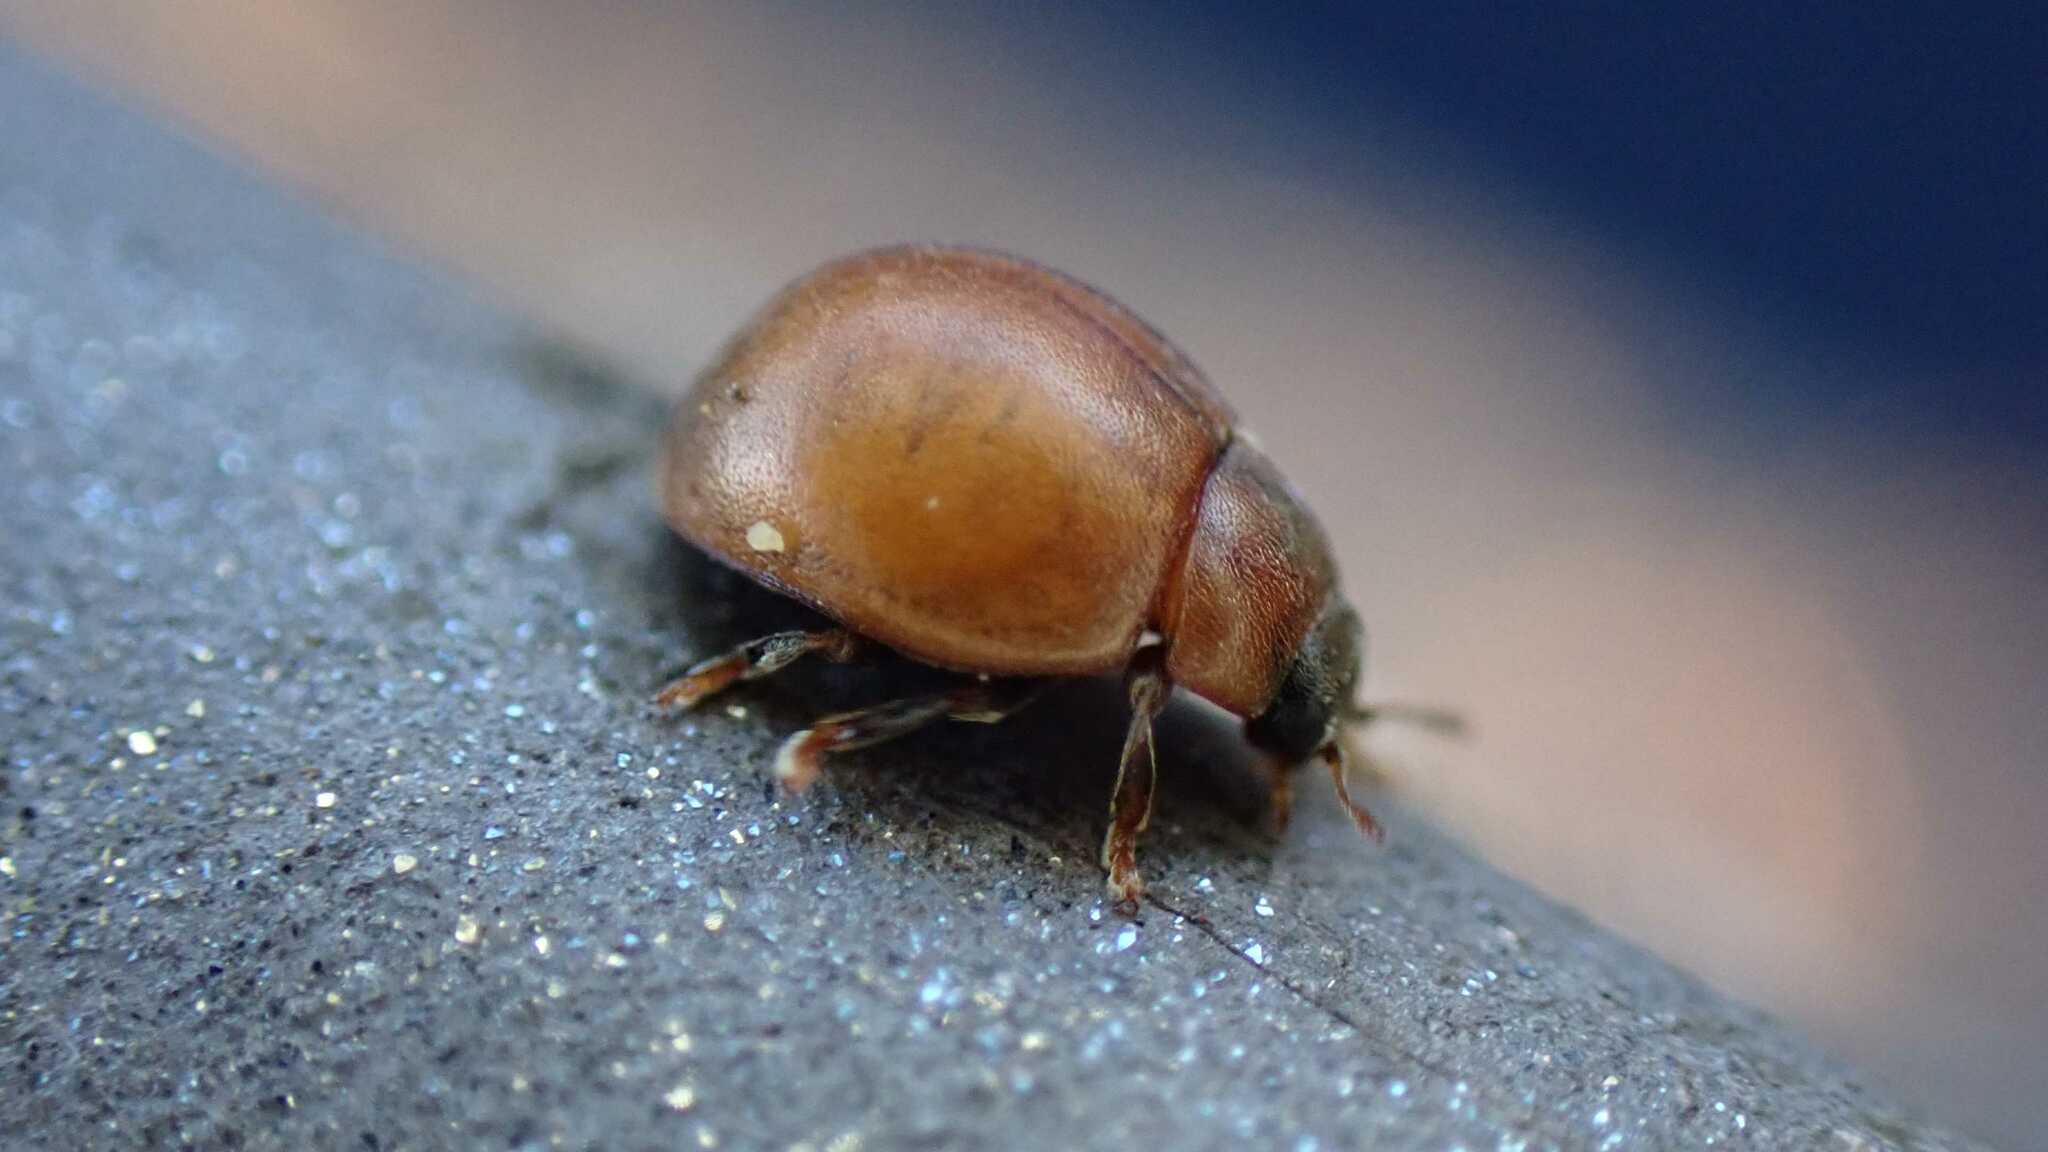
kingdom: Animalia
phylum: Arthropoda
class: Insecta
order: Coleoptera
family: Coccinellidae
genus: Cynegetis
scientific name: Cynegetis impunctata
